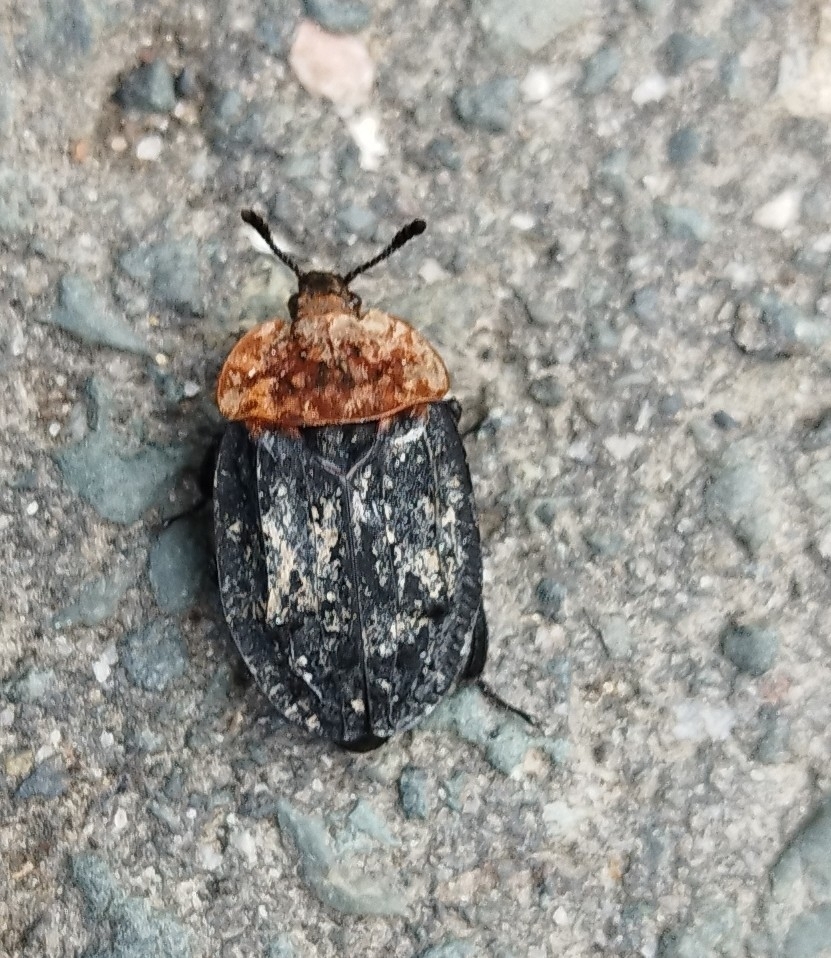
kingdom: Animalia
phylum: Arthropoda
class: Insecta
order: Coleoptera
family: Staphylinidae
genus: Oiceoptoma
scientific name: Oiceoptoma thoracicum
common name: Red-breasted carrion beetle
